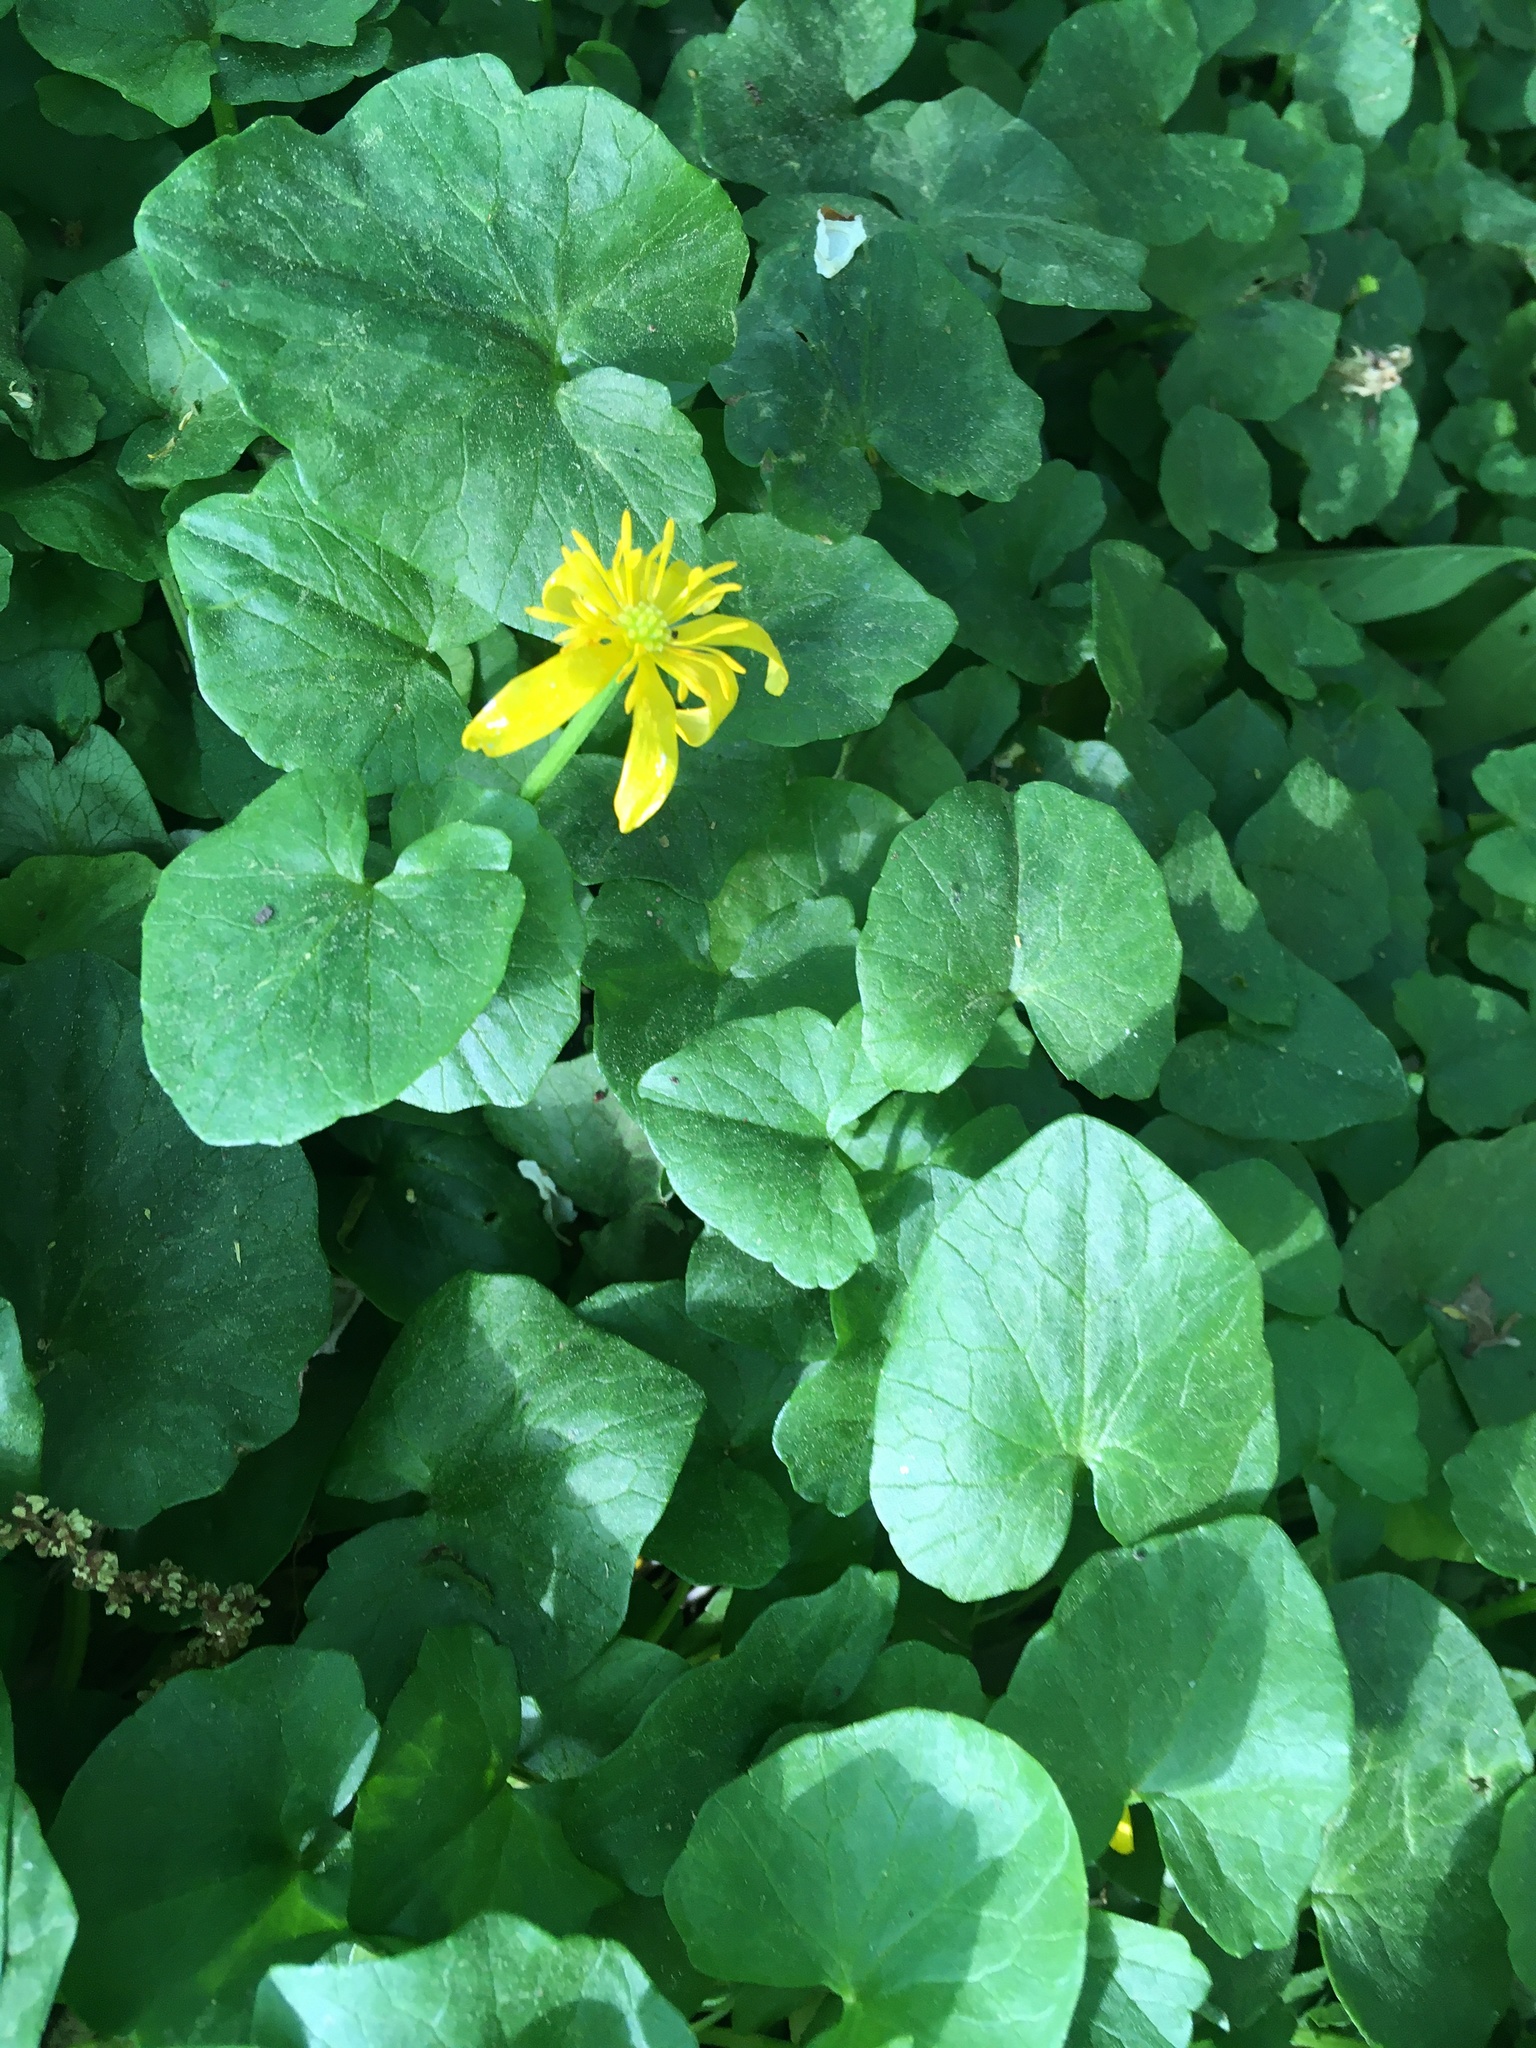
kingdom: Plantae
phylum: Tracheophyta
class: Magnoliopsida
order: Ranunculales
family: Ranunculaceae
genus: Ficaria
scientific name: Ficaria verna
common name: Lesser celandine
